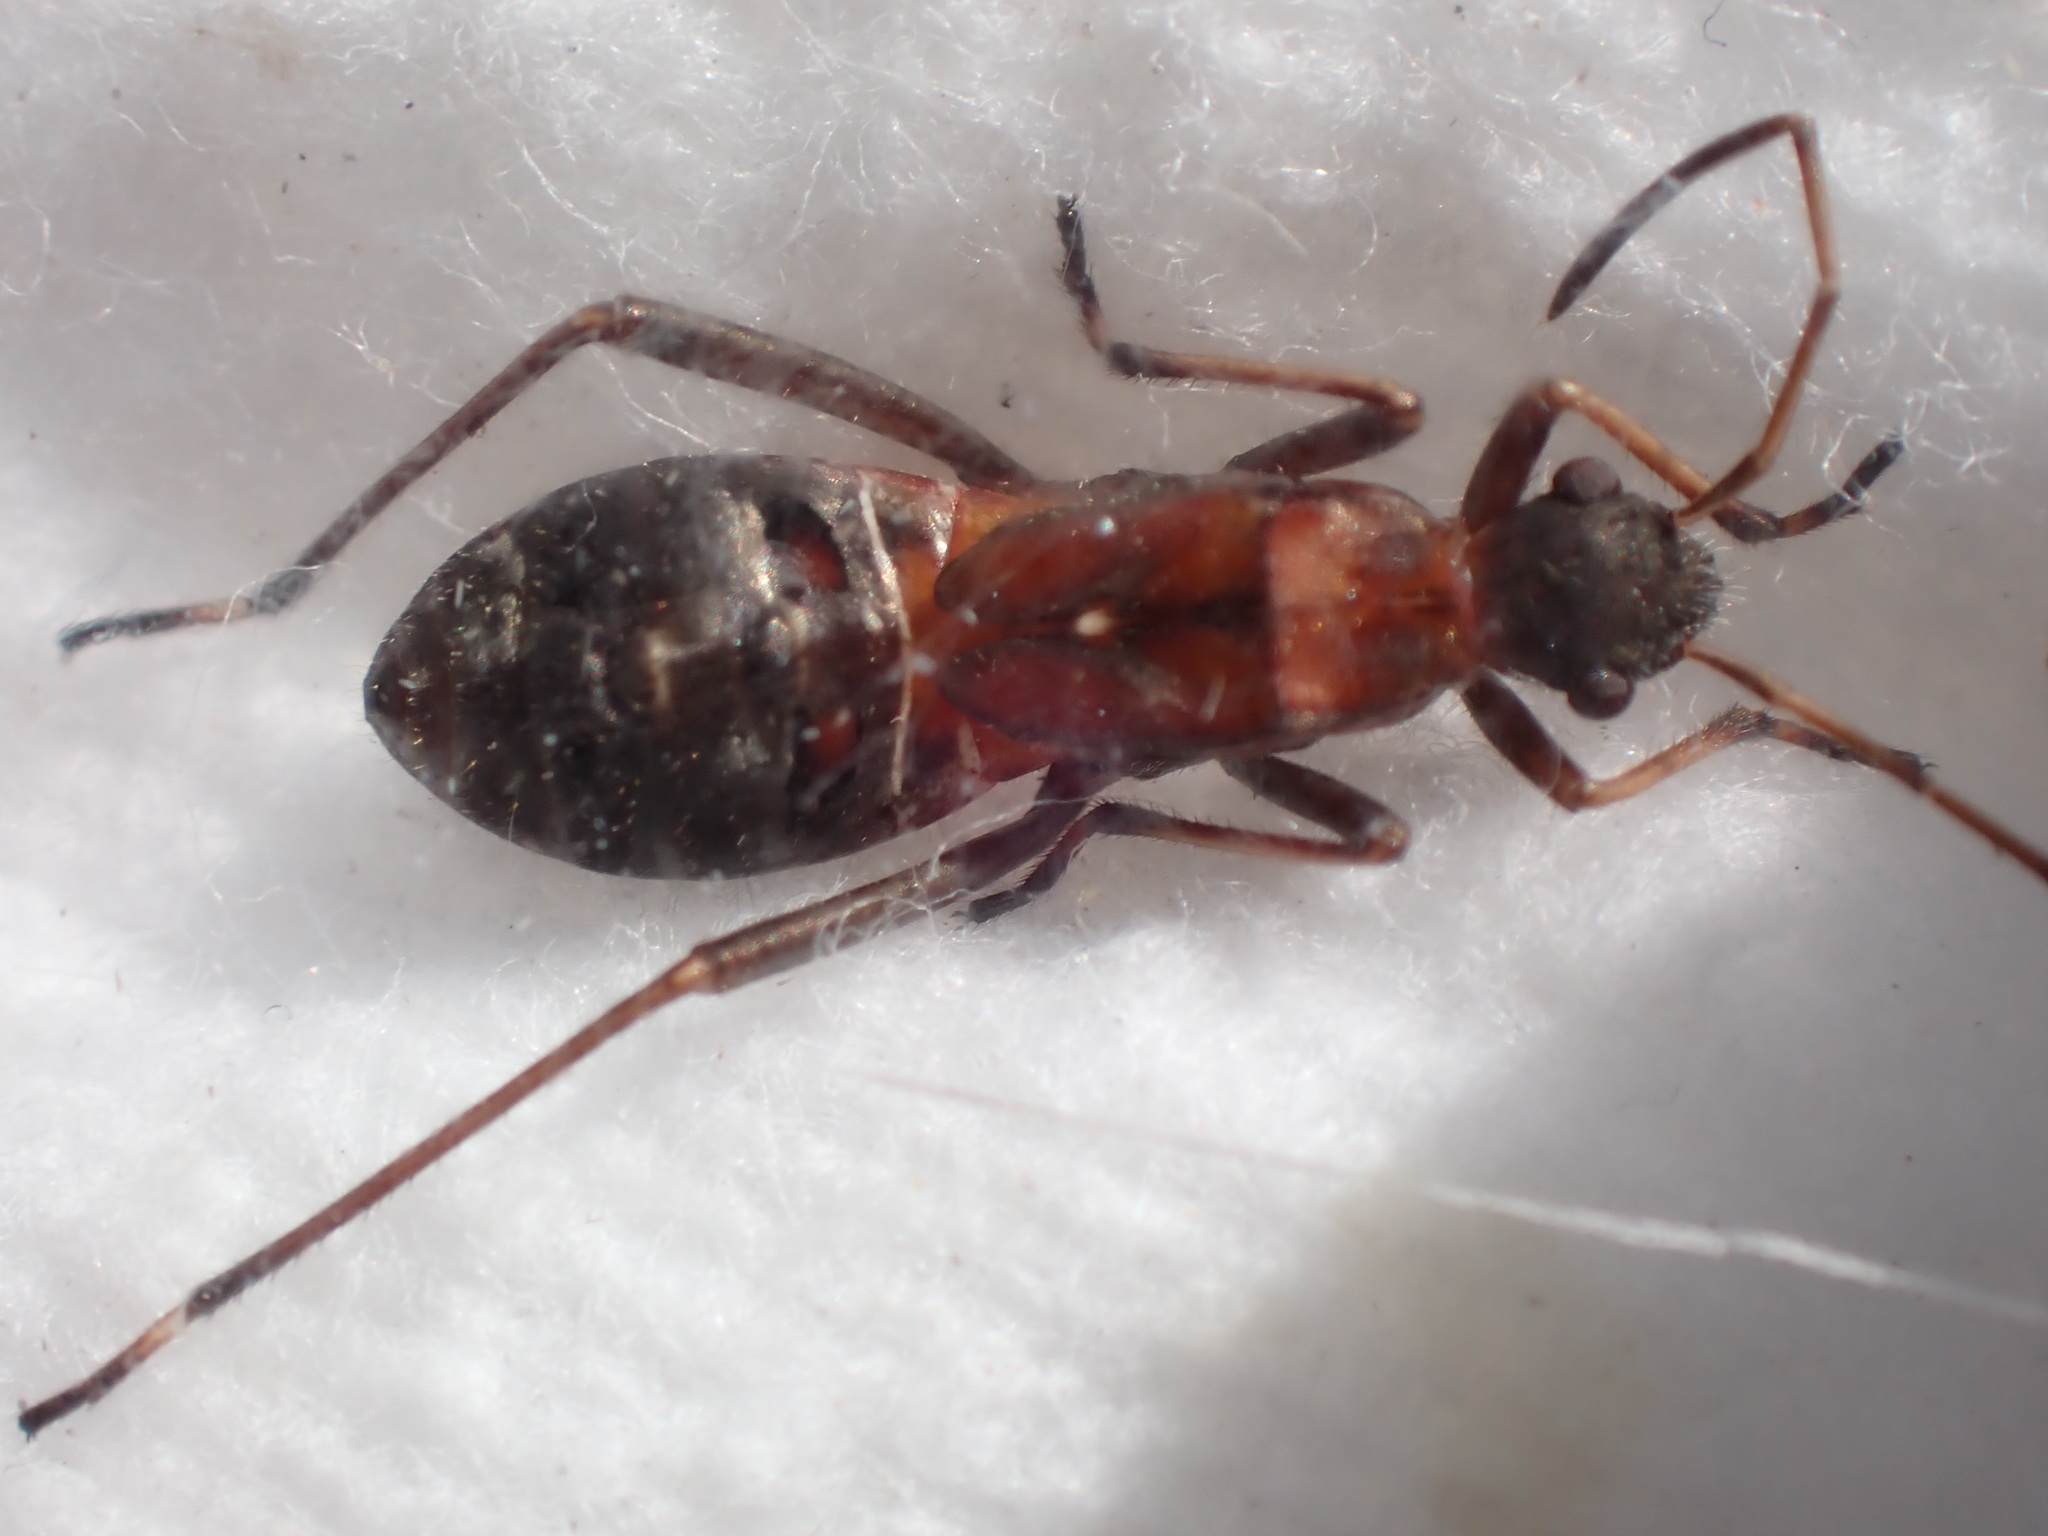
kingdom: Animalia
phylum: Arthropoda
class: Insecta
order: Hemiptera
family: Alydidae
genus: Alydus
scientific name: Alydus calcaratus
